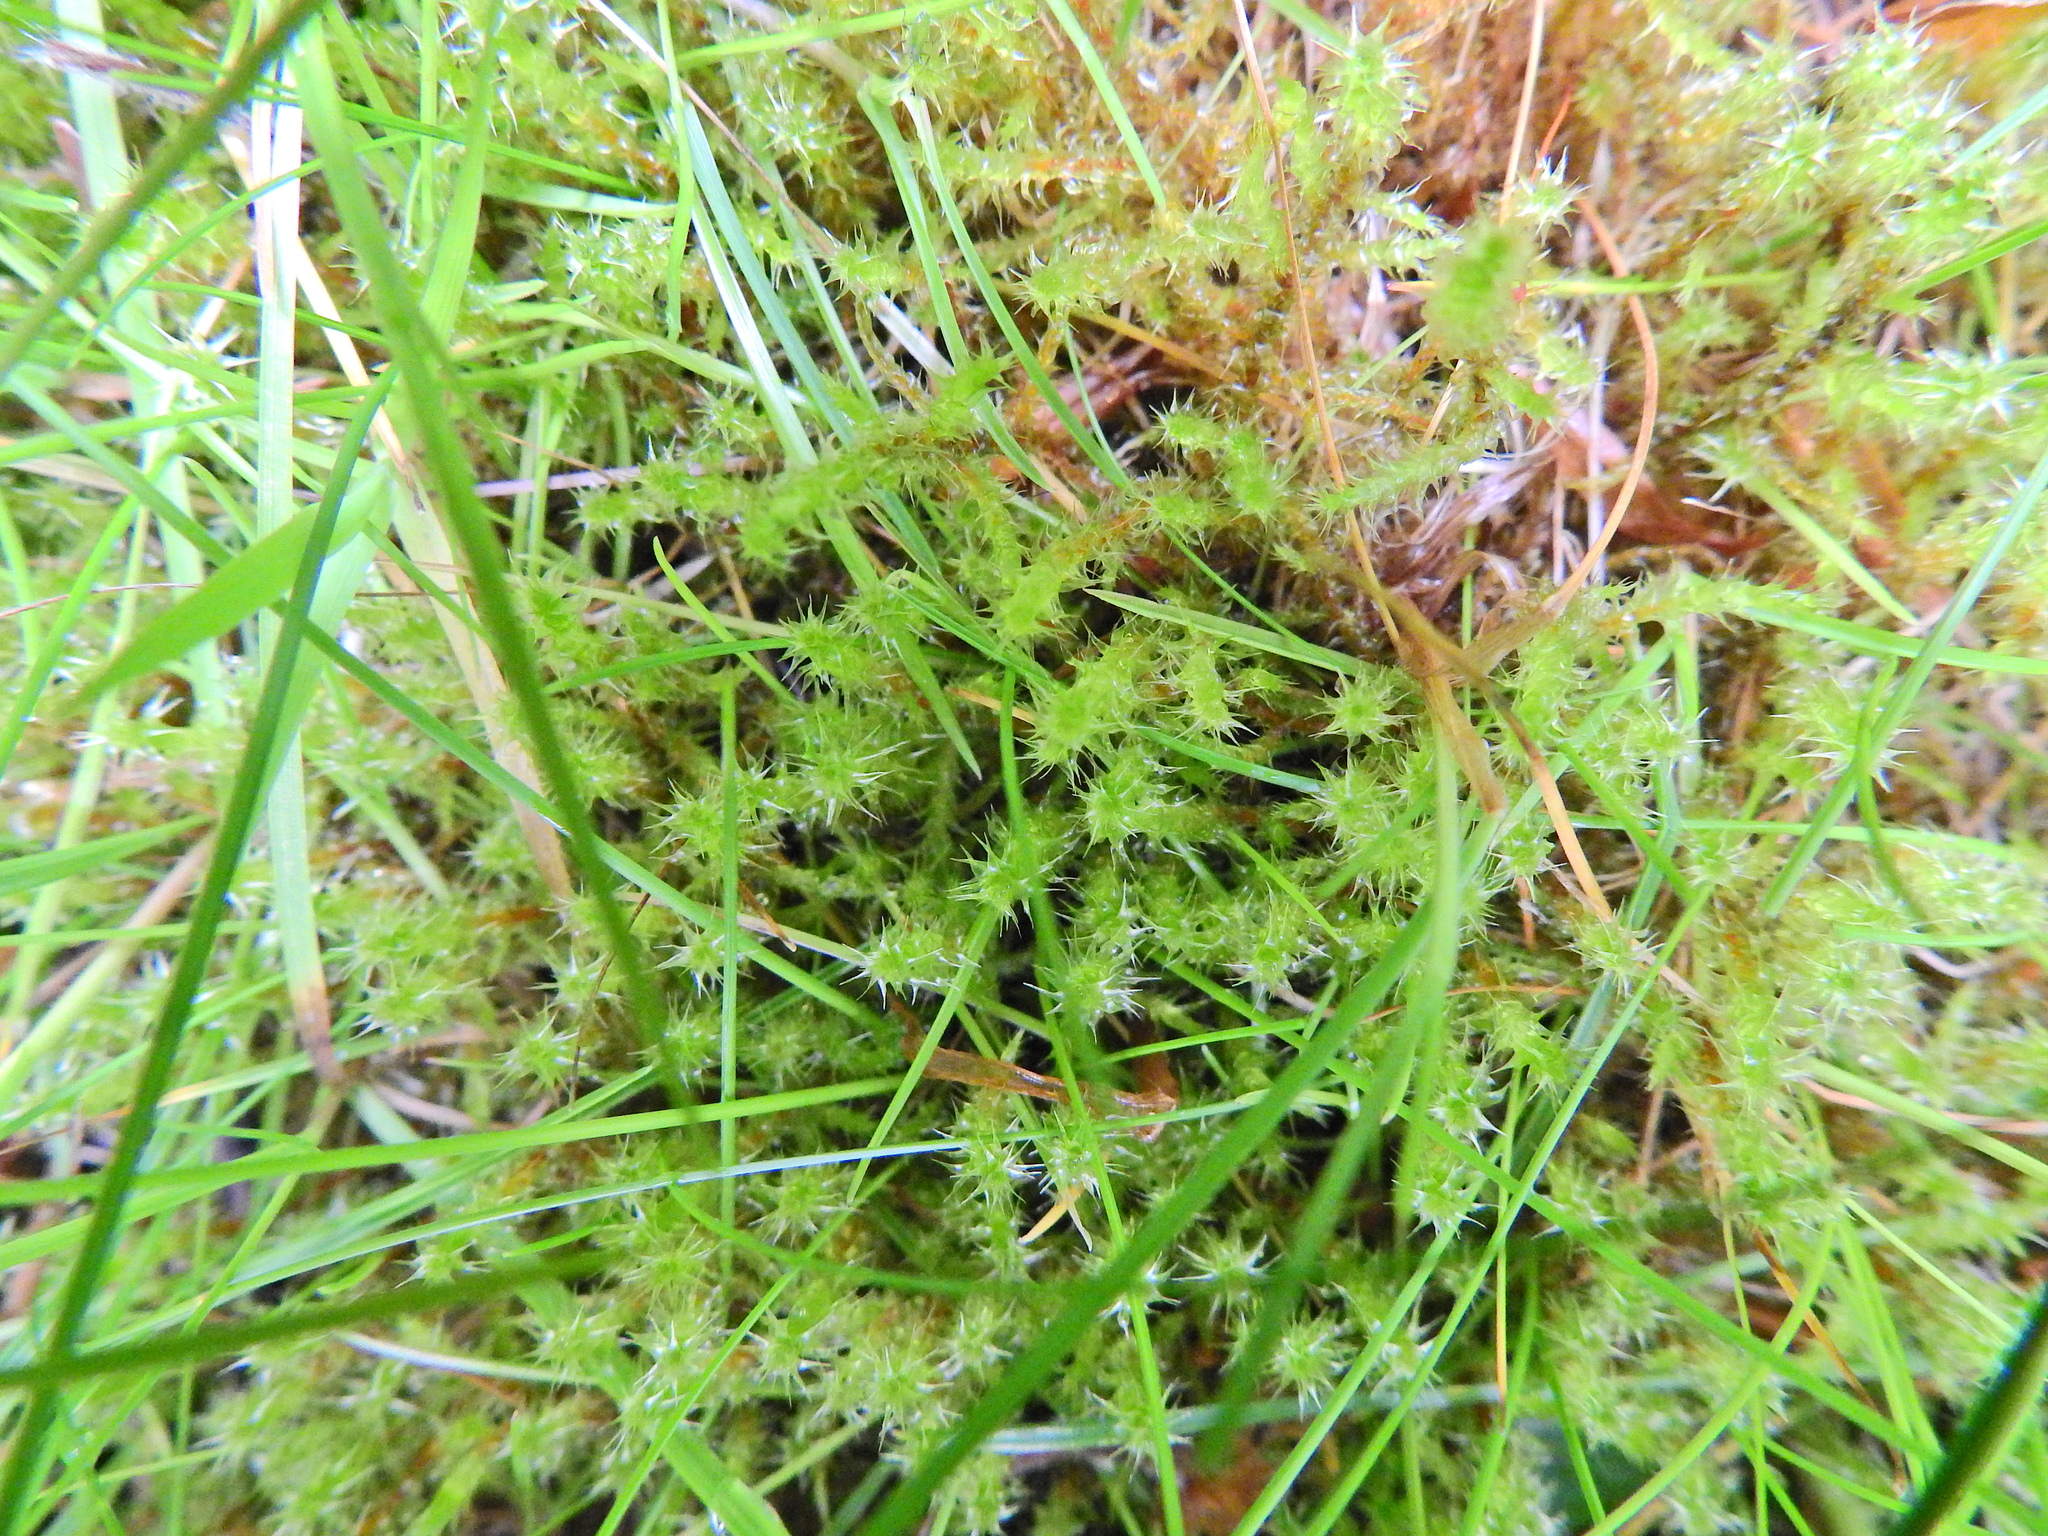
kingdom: Plantae
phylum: Bryophyta
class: Bryopsida
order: Hypnales
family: Hylocomiaceae
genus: Rhytidiadelphus
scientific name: Rhytidiadelphus squarrosus
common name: Springy turf-moss
